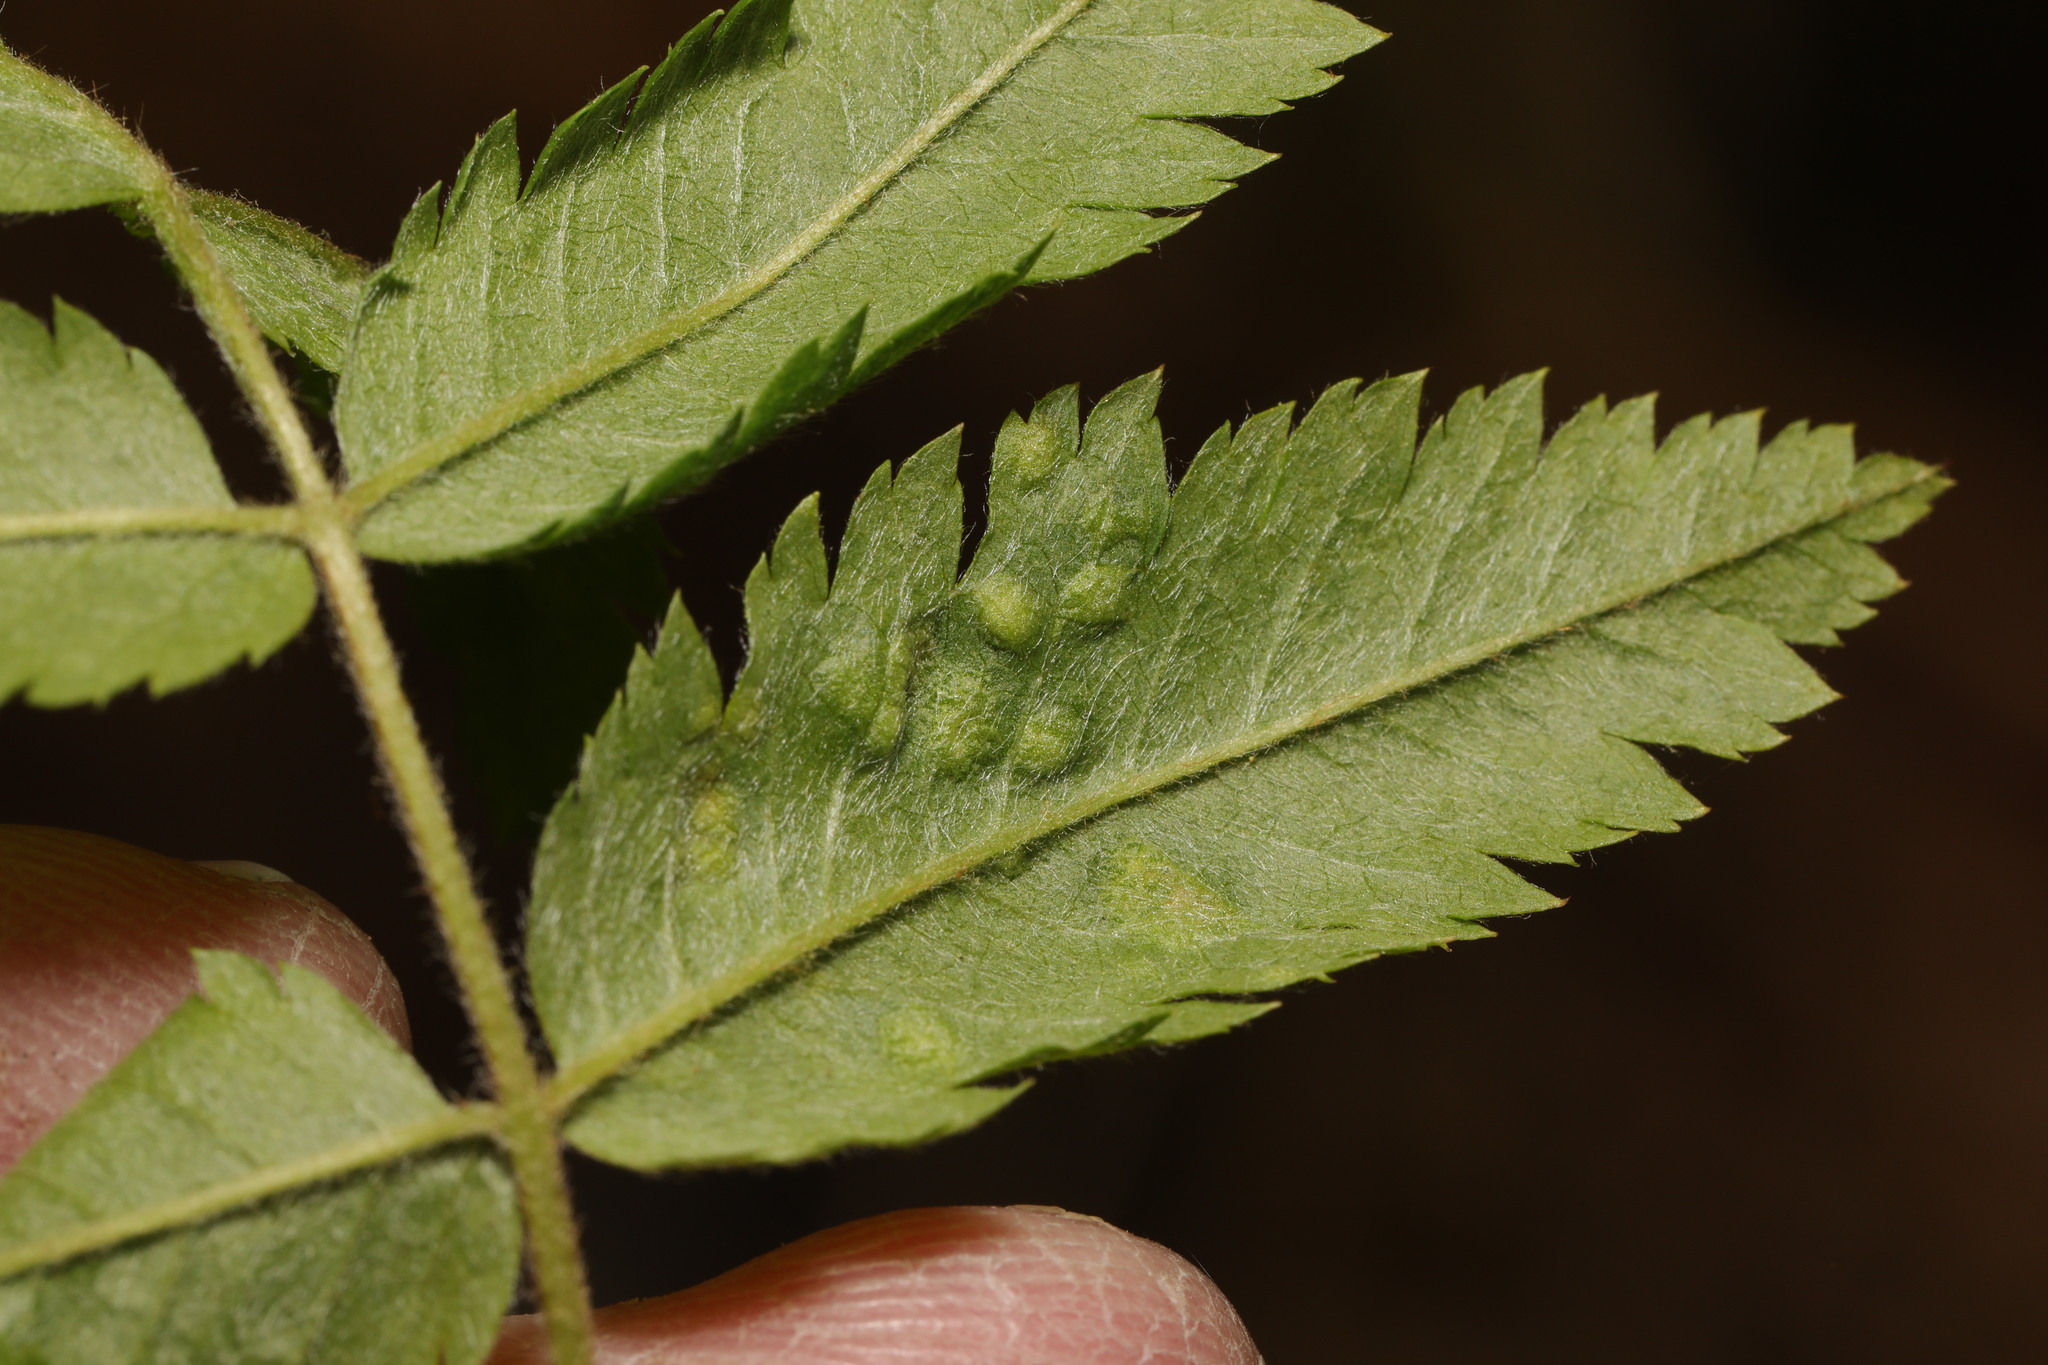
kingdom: Animalia
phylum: Arthropoda
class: Arachnida
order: Trombidiformes
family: Eriophyidae
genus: Eriophyes
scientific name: Eriophyes pyri
